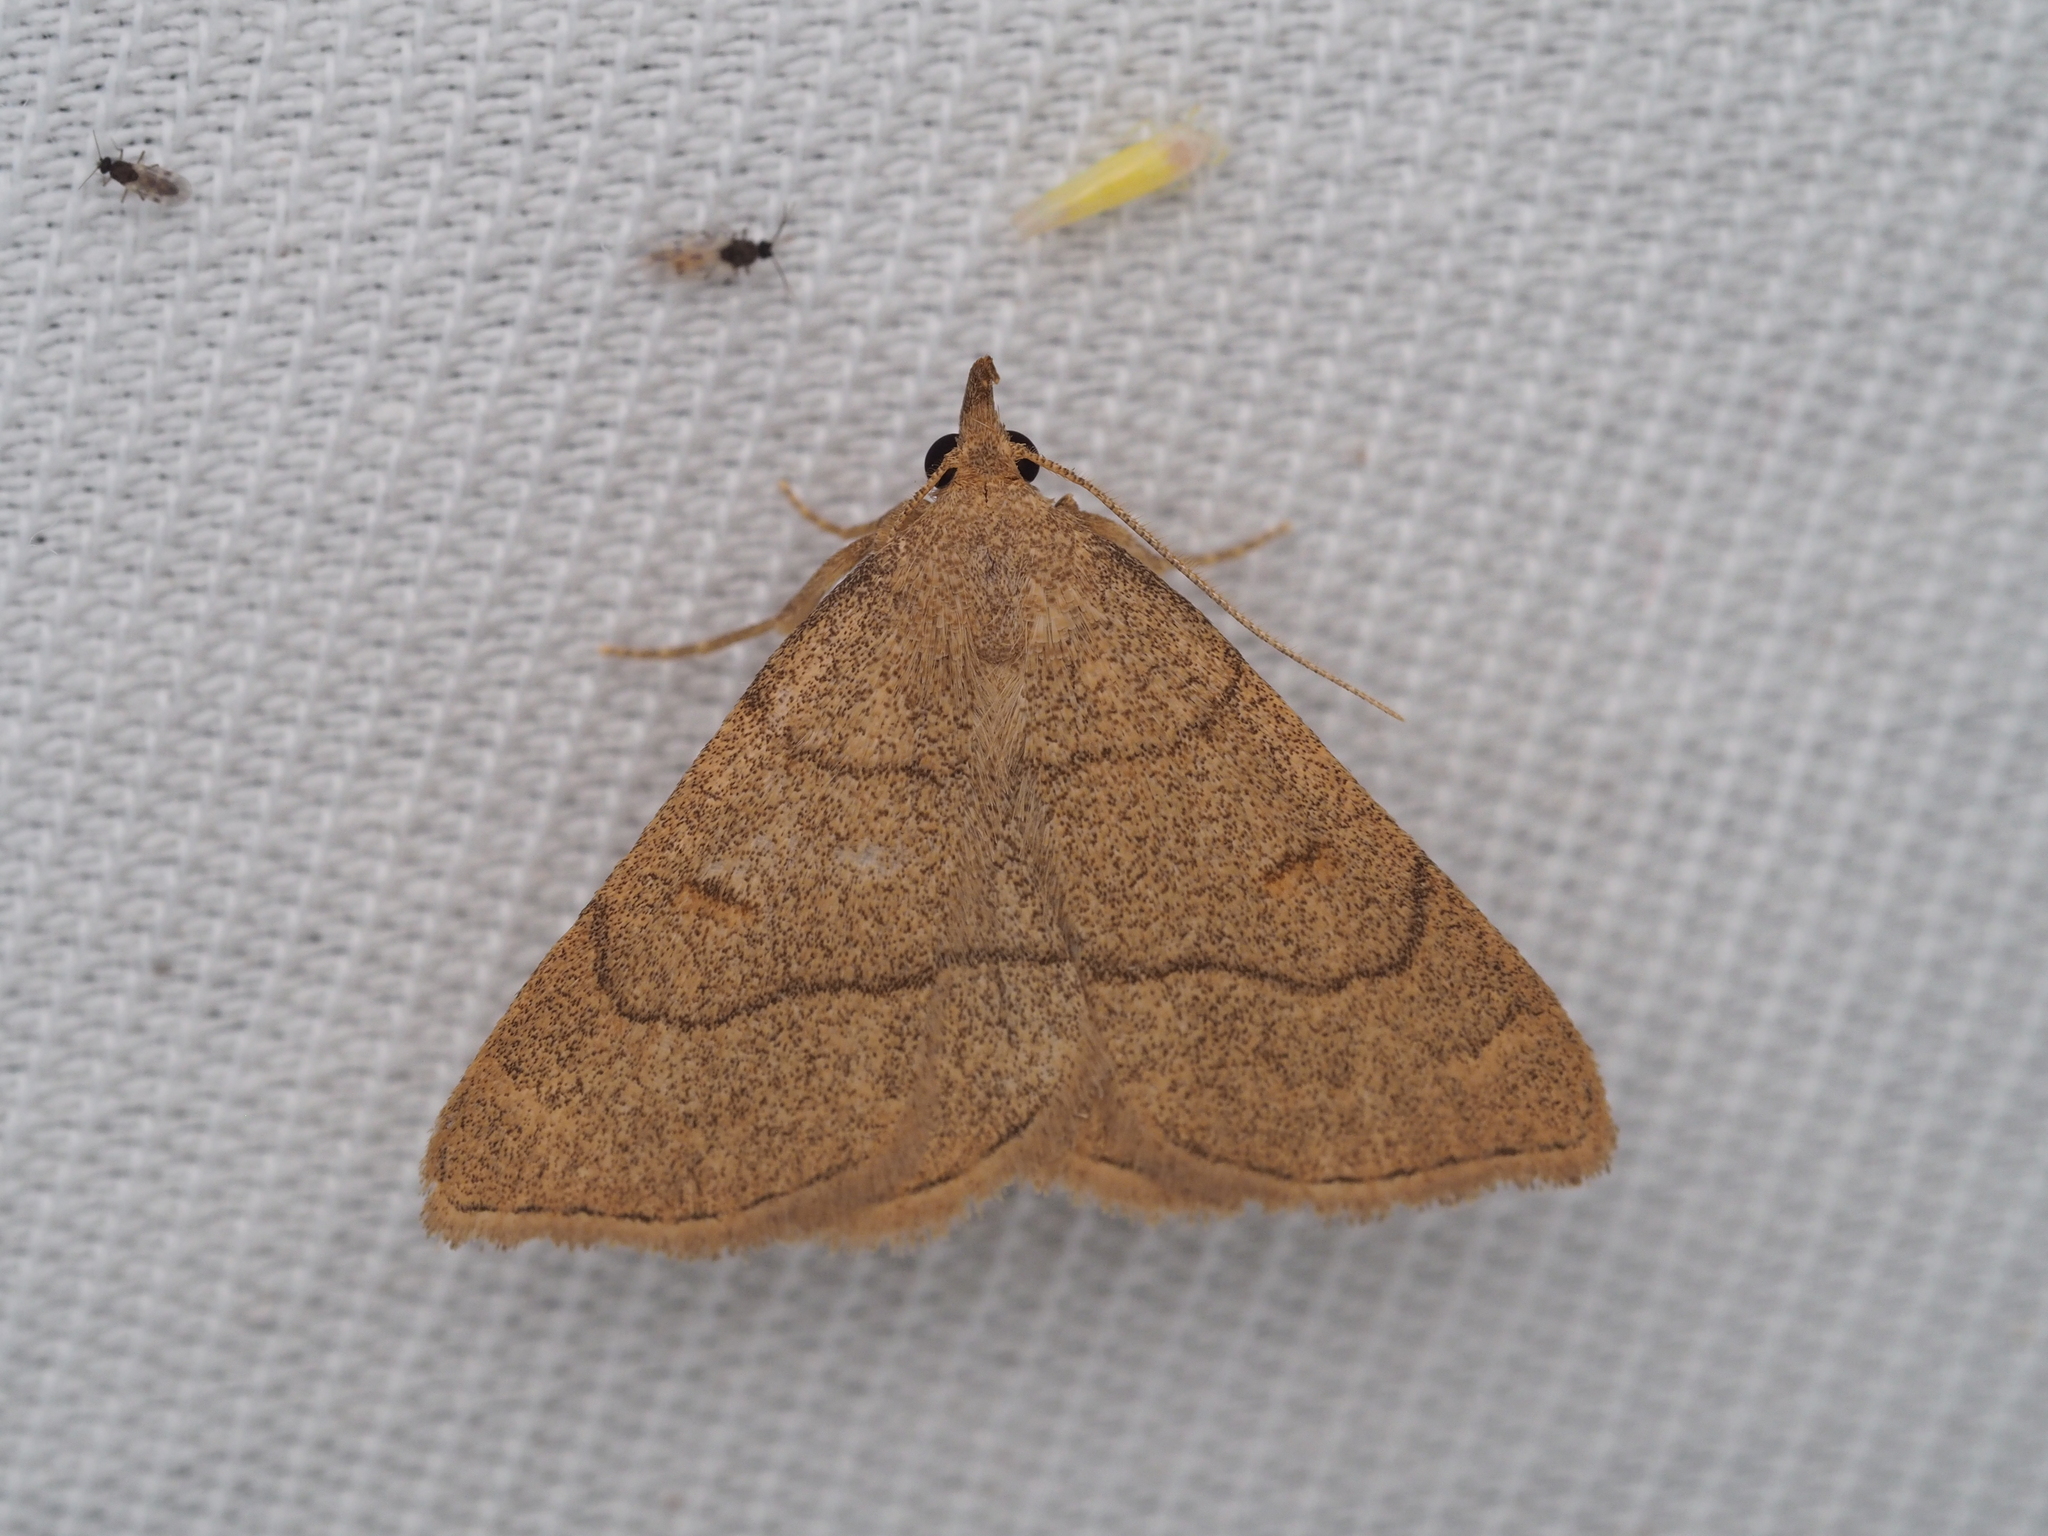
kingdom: Animalia
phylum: Arthropoda
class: Insecta
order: Lepidoptera
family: Erebidae
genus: Paracolax
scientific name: Paracolax tristalis
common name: Clay fan-foot
